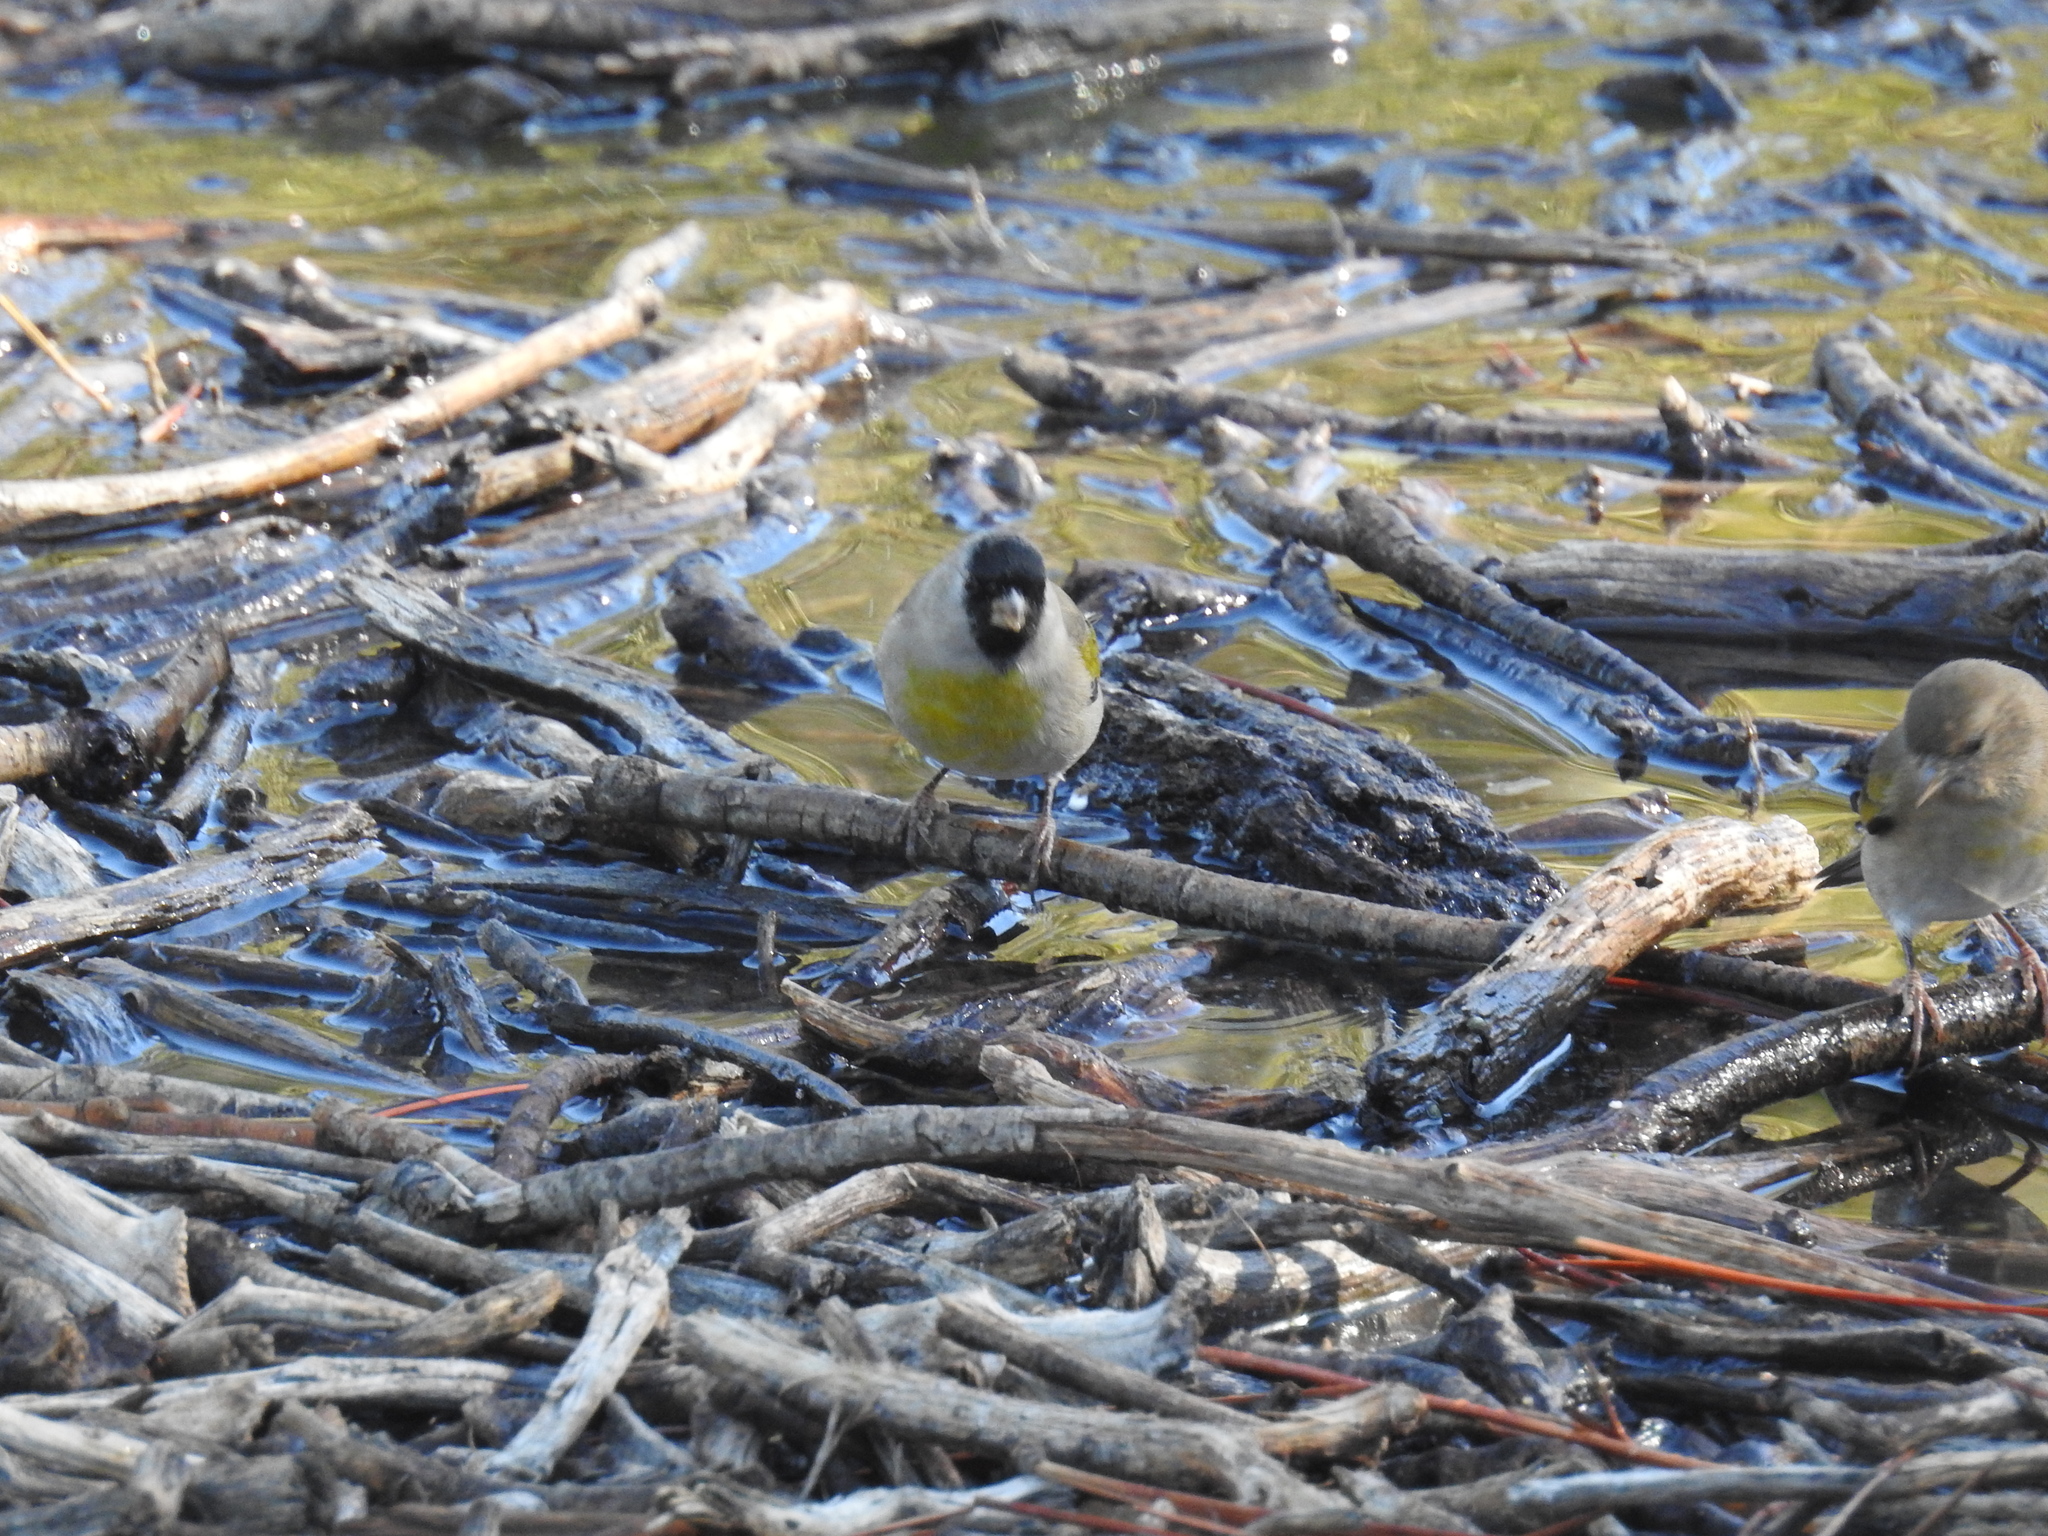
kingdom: Animalia
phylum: Chordata
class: Aves
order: Passeriformes
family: Fringillidae
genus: Spinus
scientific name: Spinus lawrencei
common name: Lawrence's goldfinch
